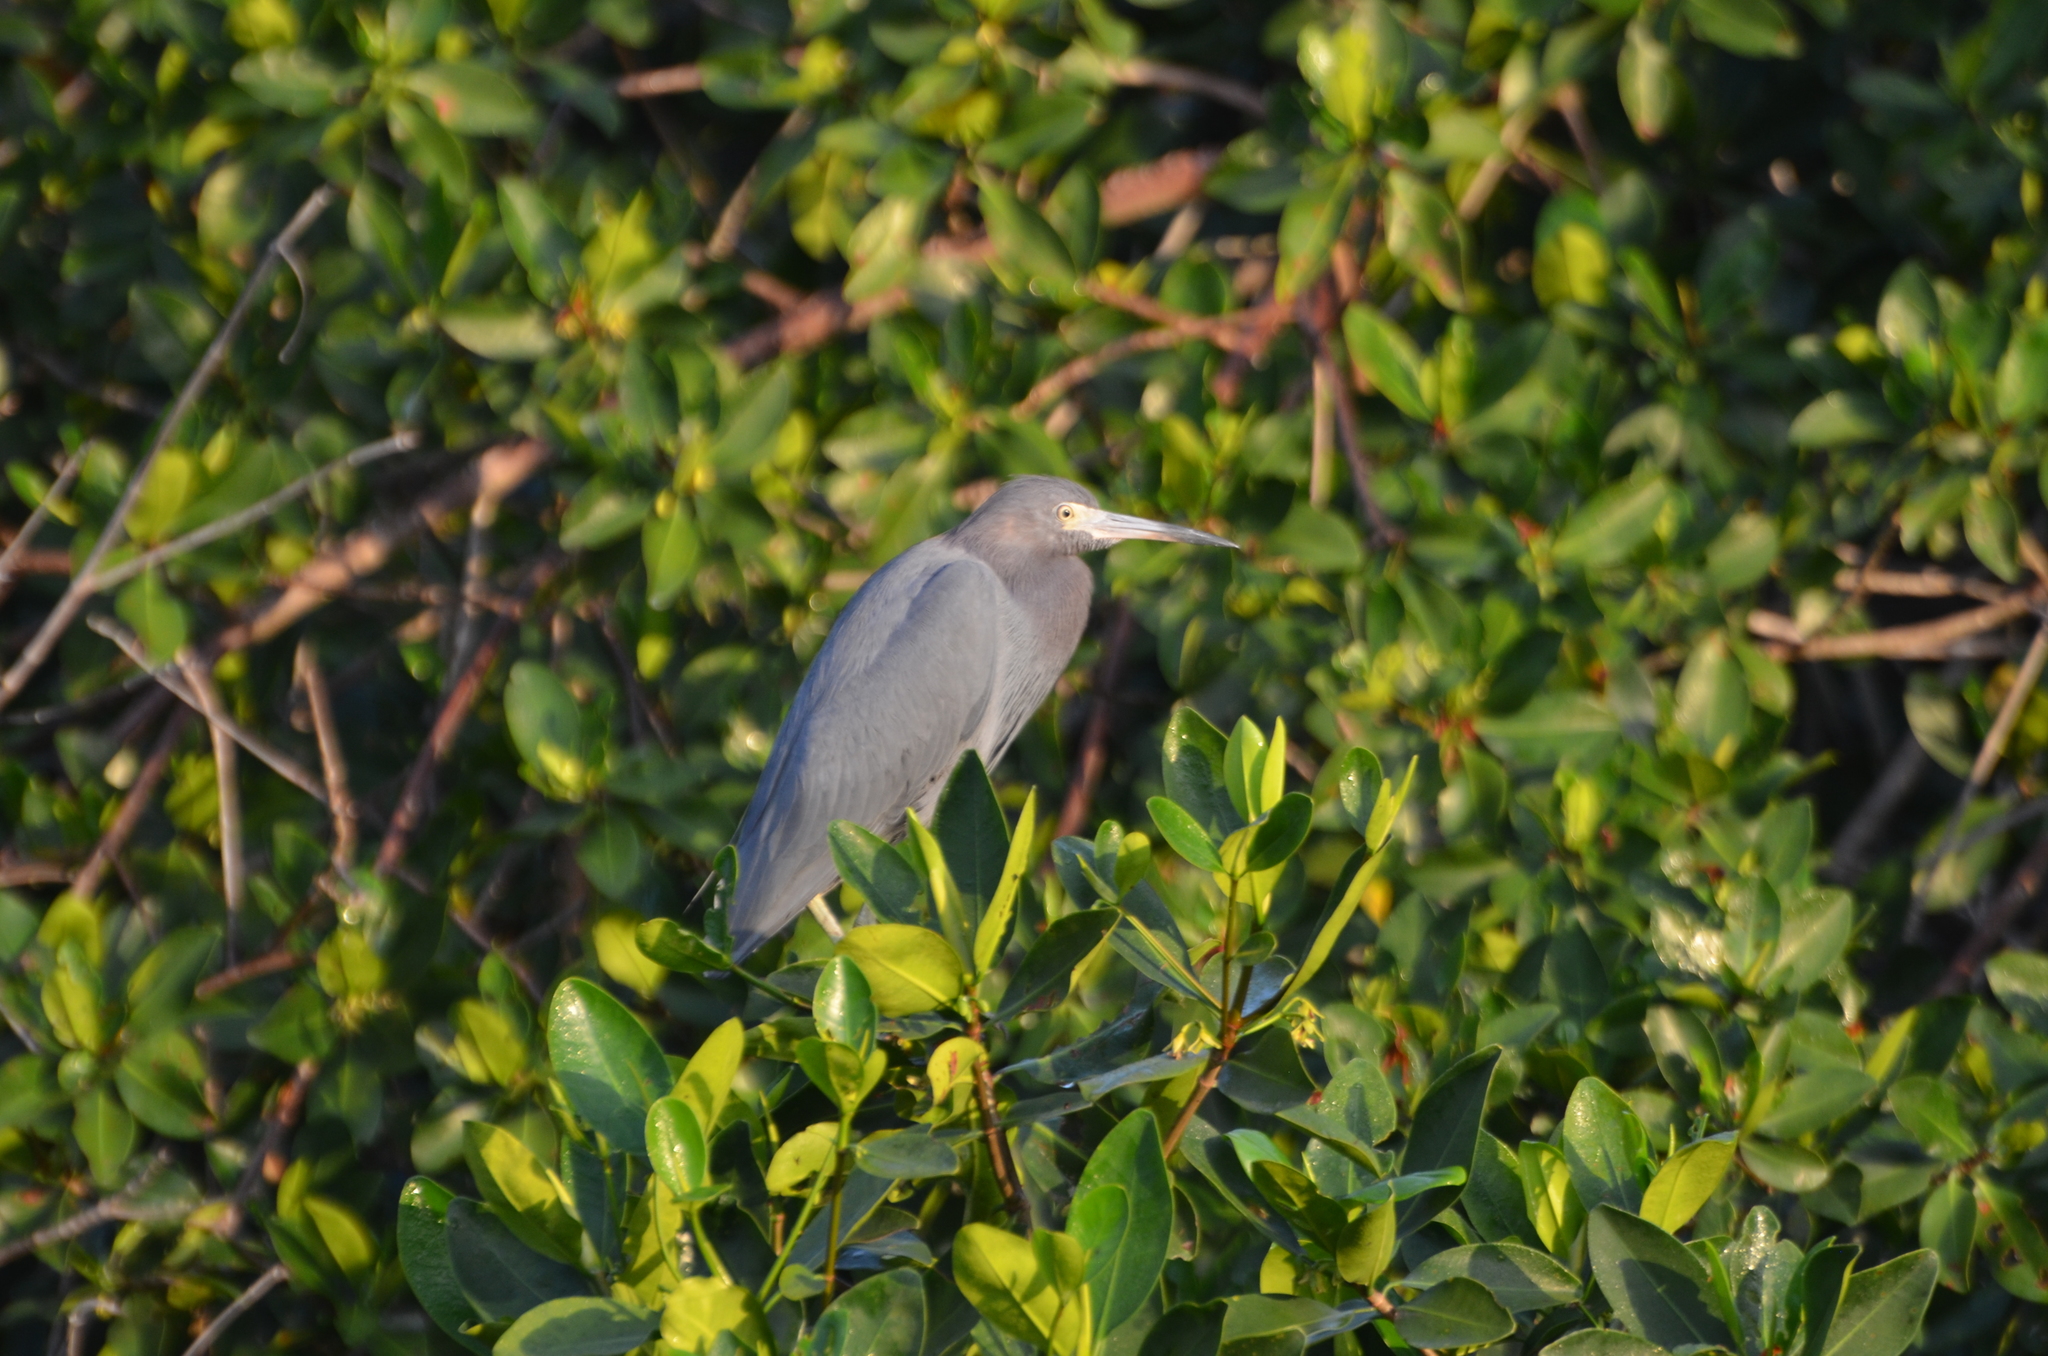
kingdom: Animalia
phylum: Chordata
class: Aves
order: Pelecaniformes
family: Ardeidae
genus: Egretta
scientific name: Egretta caerulea
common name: Little blue heron
